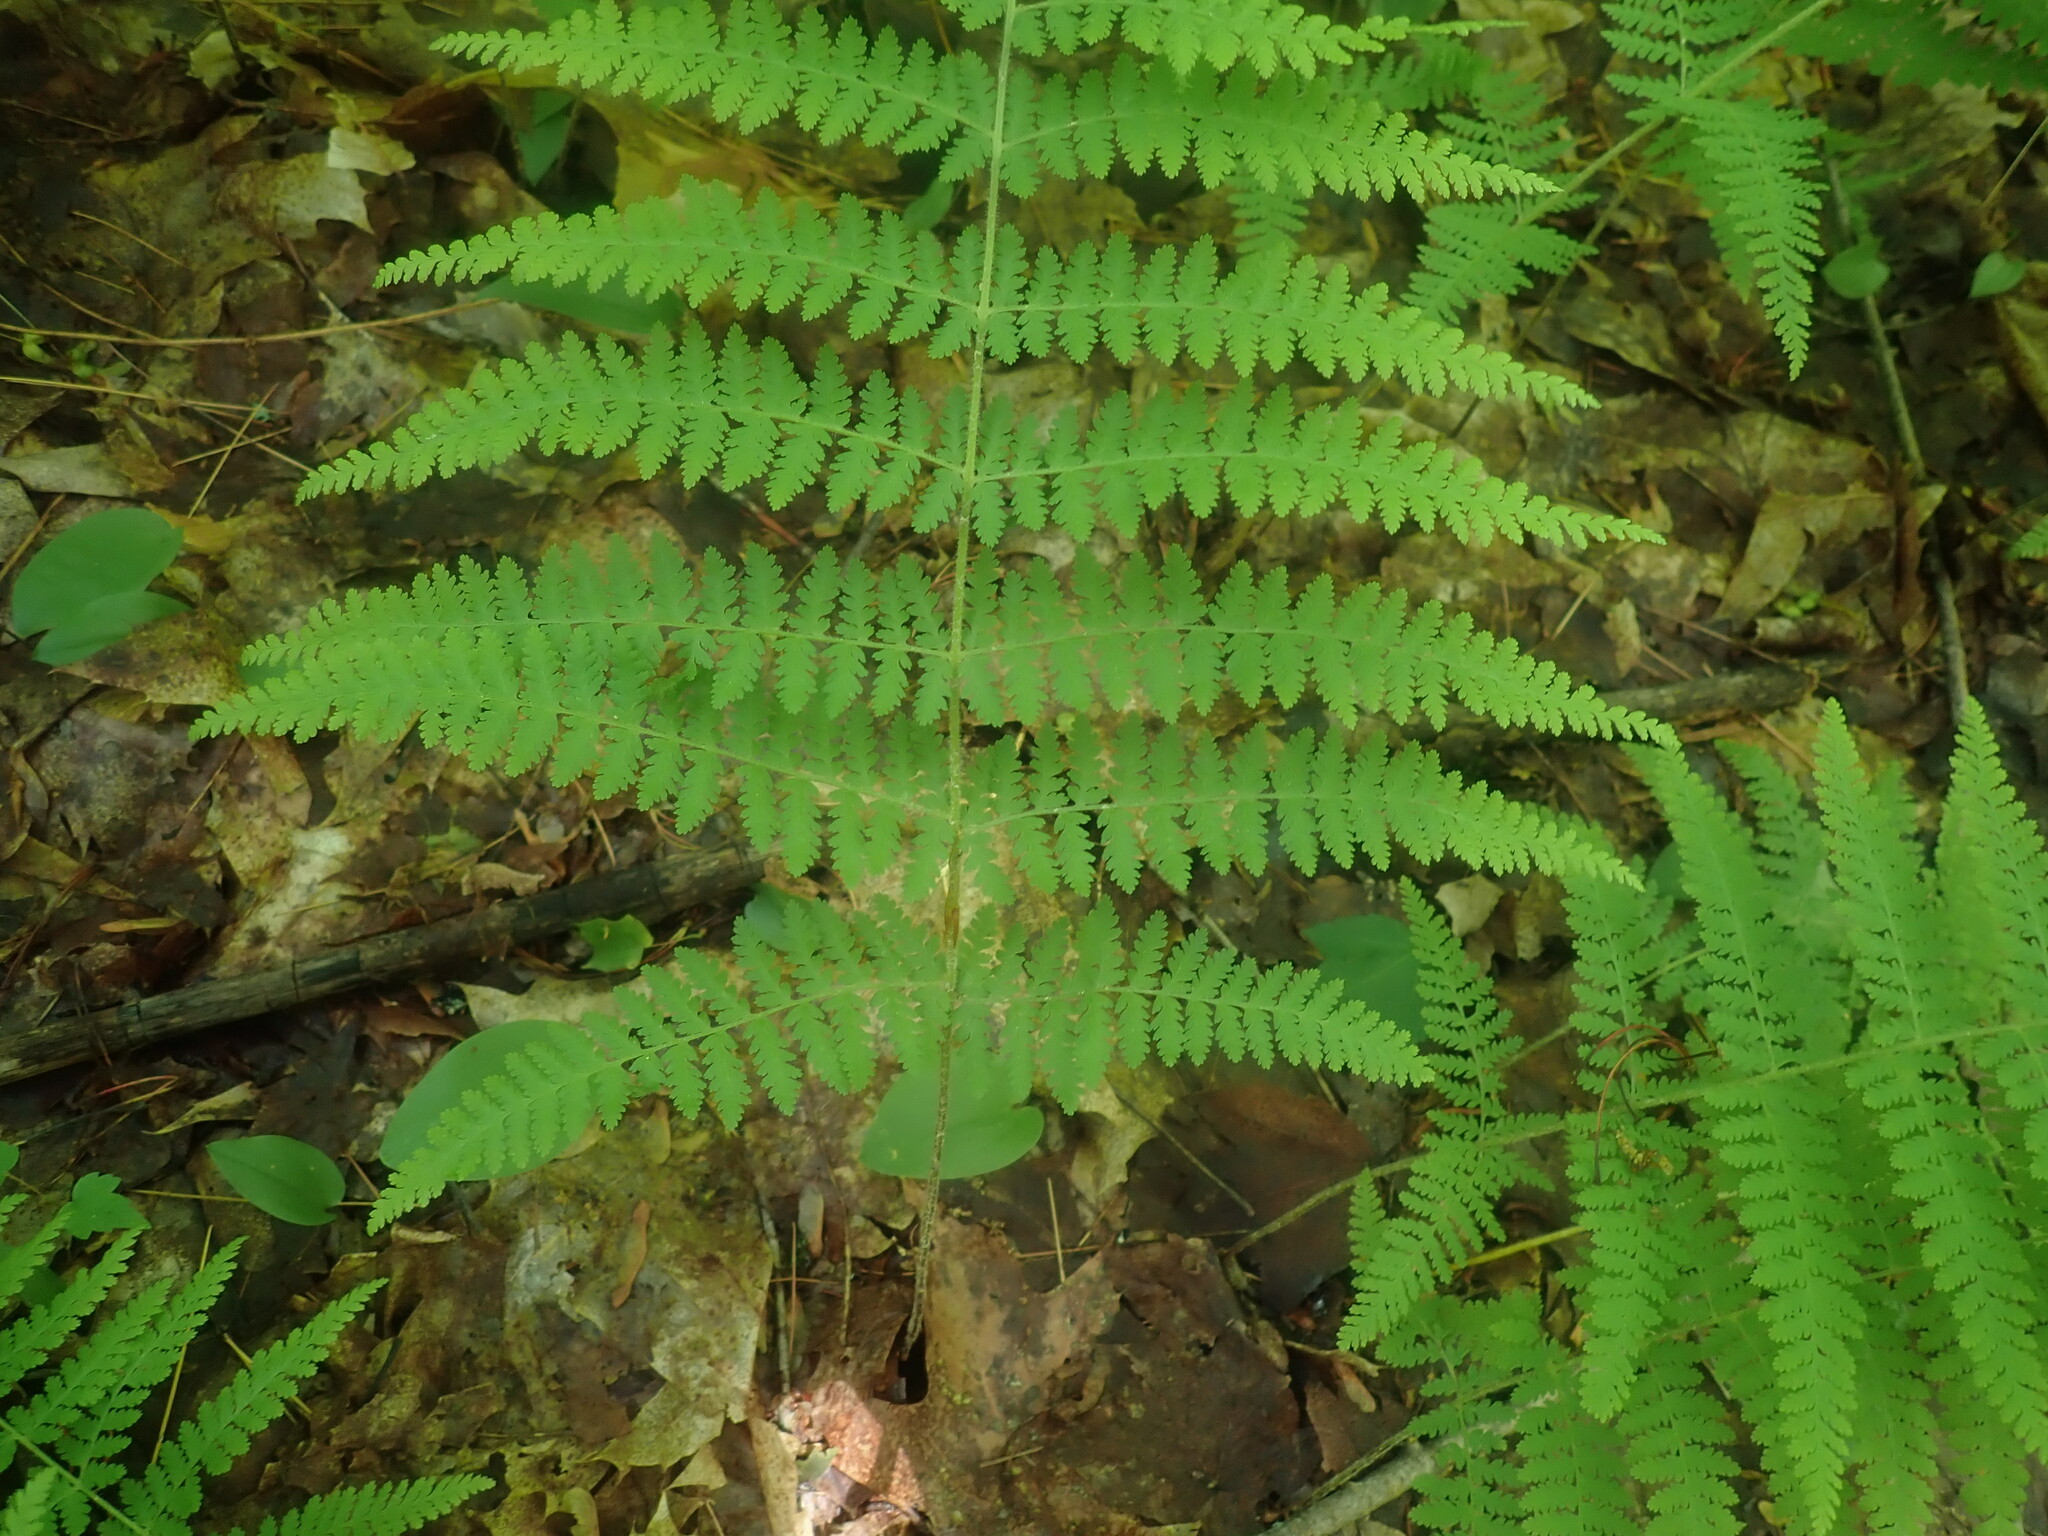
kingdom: Plantae
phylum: Tracheophyta
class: Polypodiopsida
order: Polypodiales
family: Dennstaedtiaceae
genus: Sitobolium
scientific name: Sitobolium punctilobum
